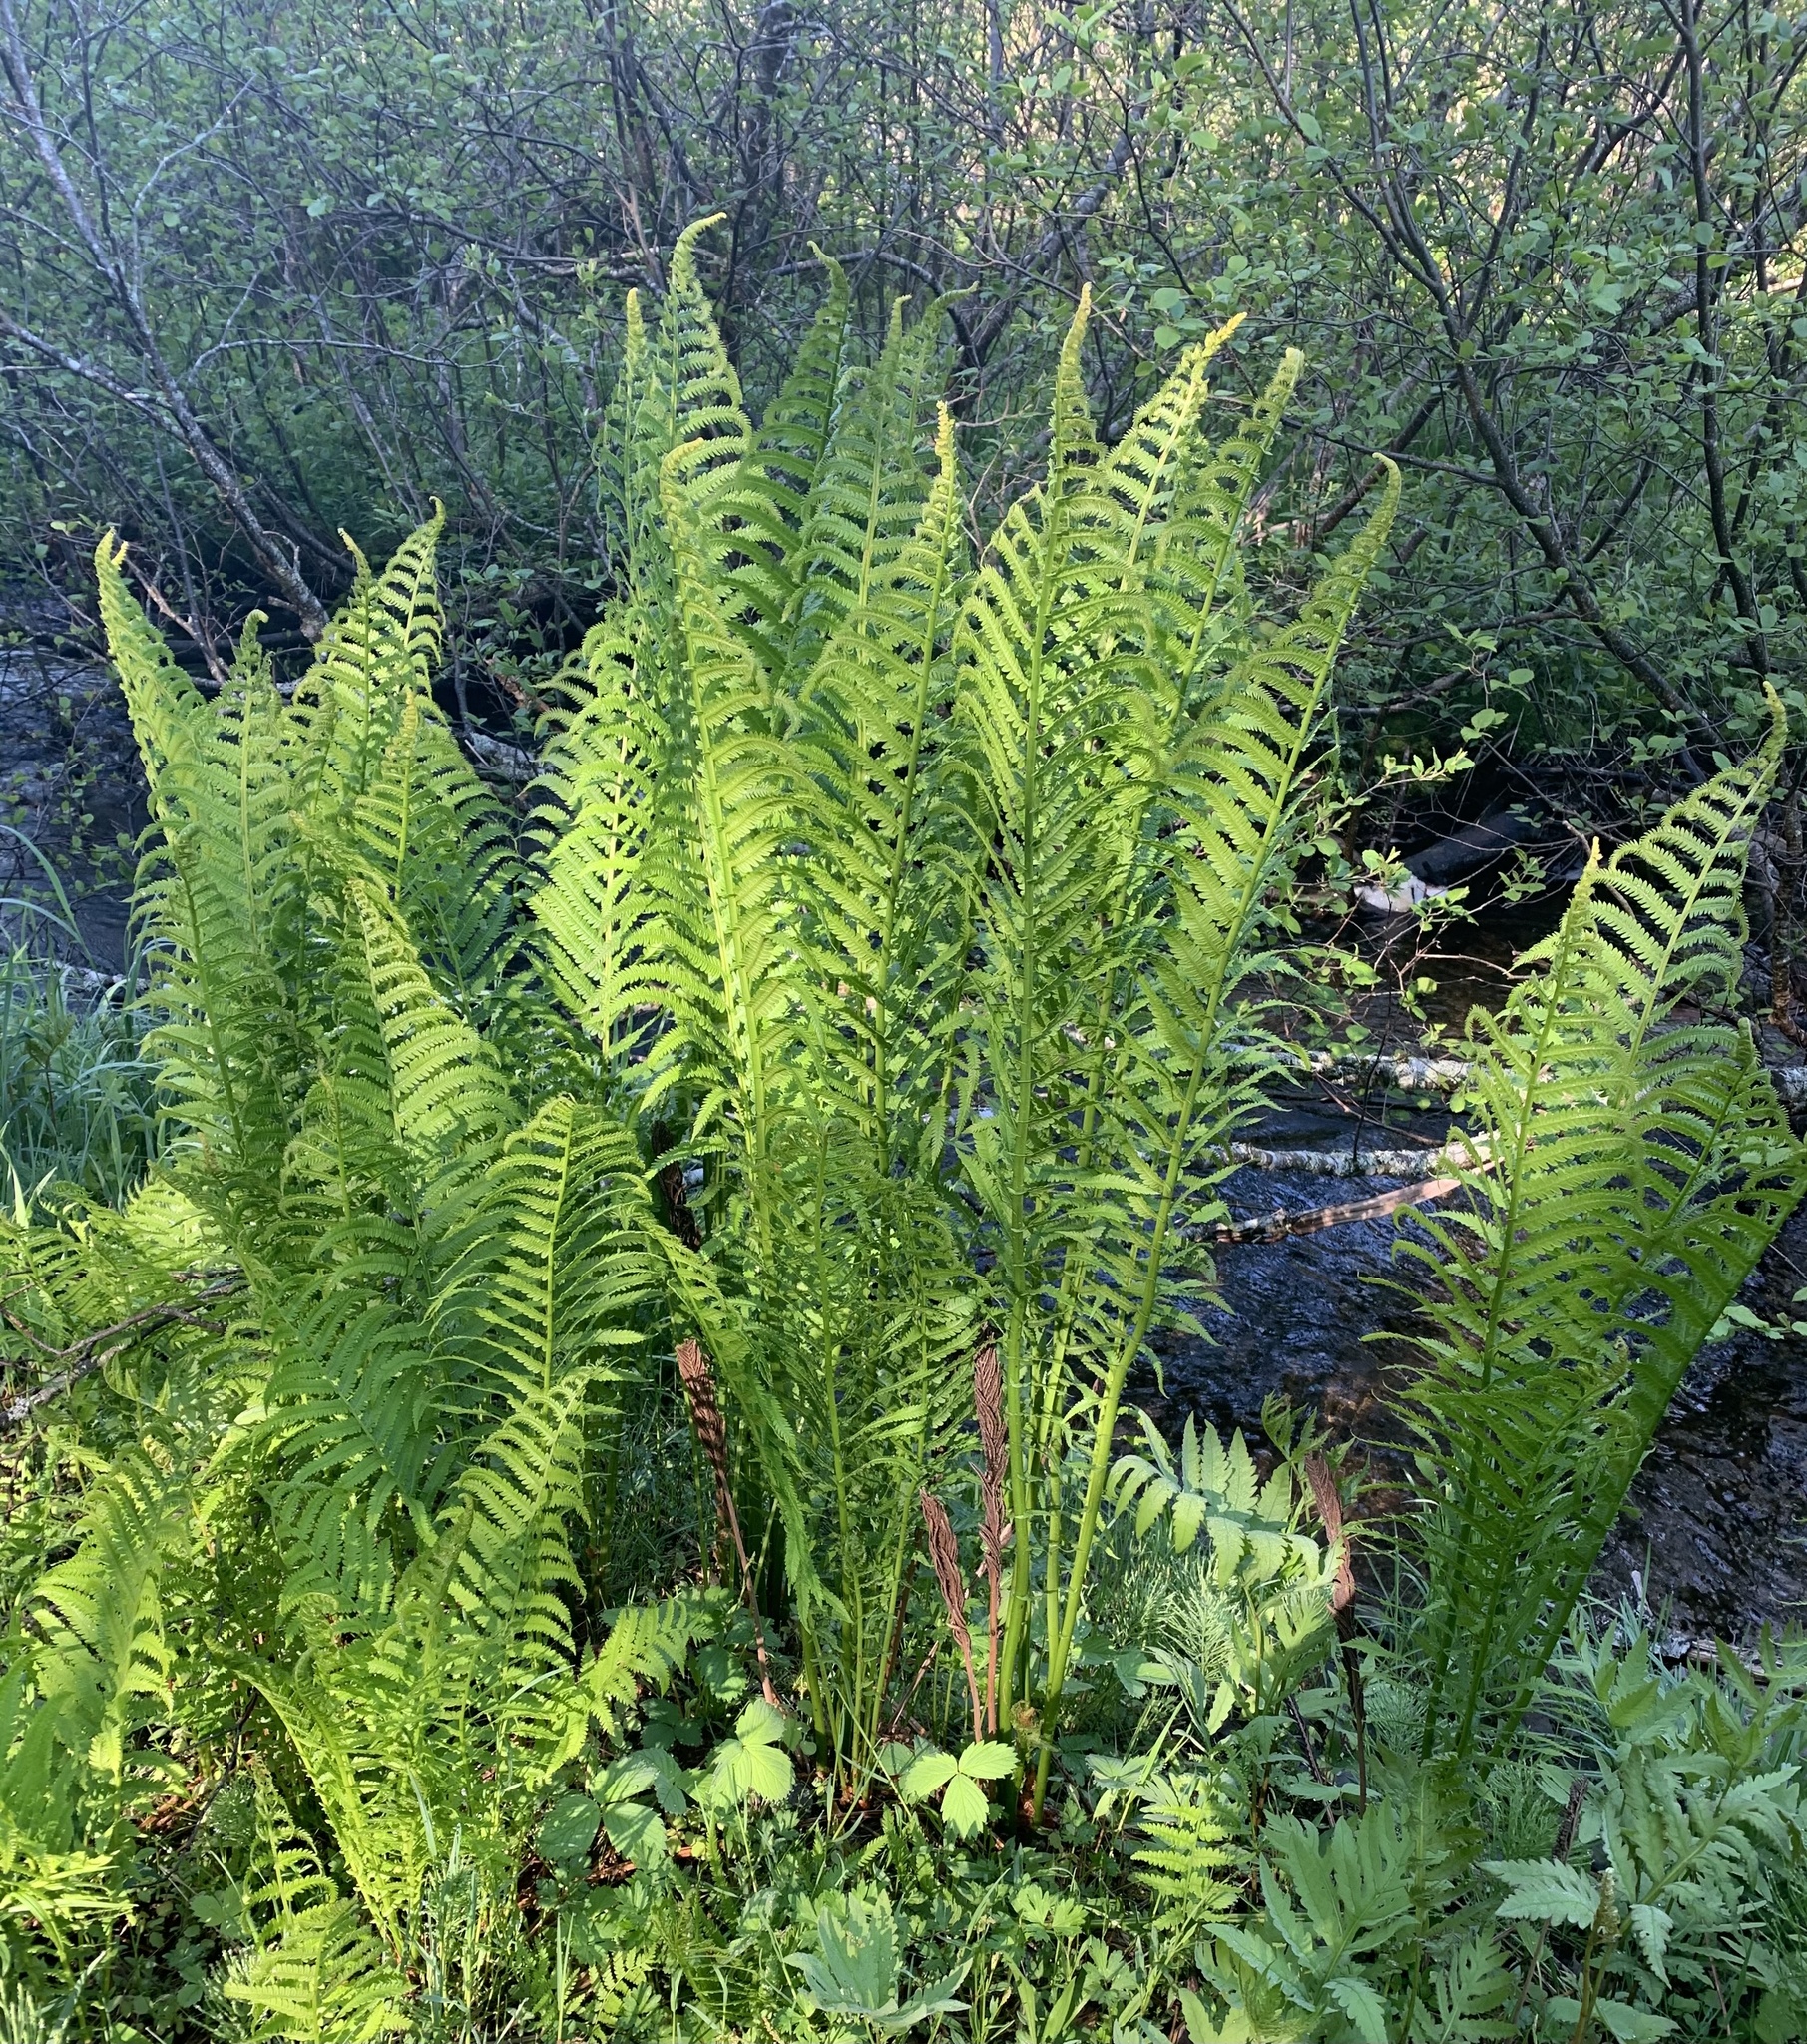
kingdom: Plantae
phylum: Tracheophyta
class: Polypodiopsida
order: Polypodiales
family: Onocleaceae
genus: Matteuccia
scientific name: Matteuccia struthiopteris
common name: Ostrich fern
